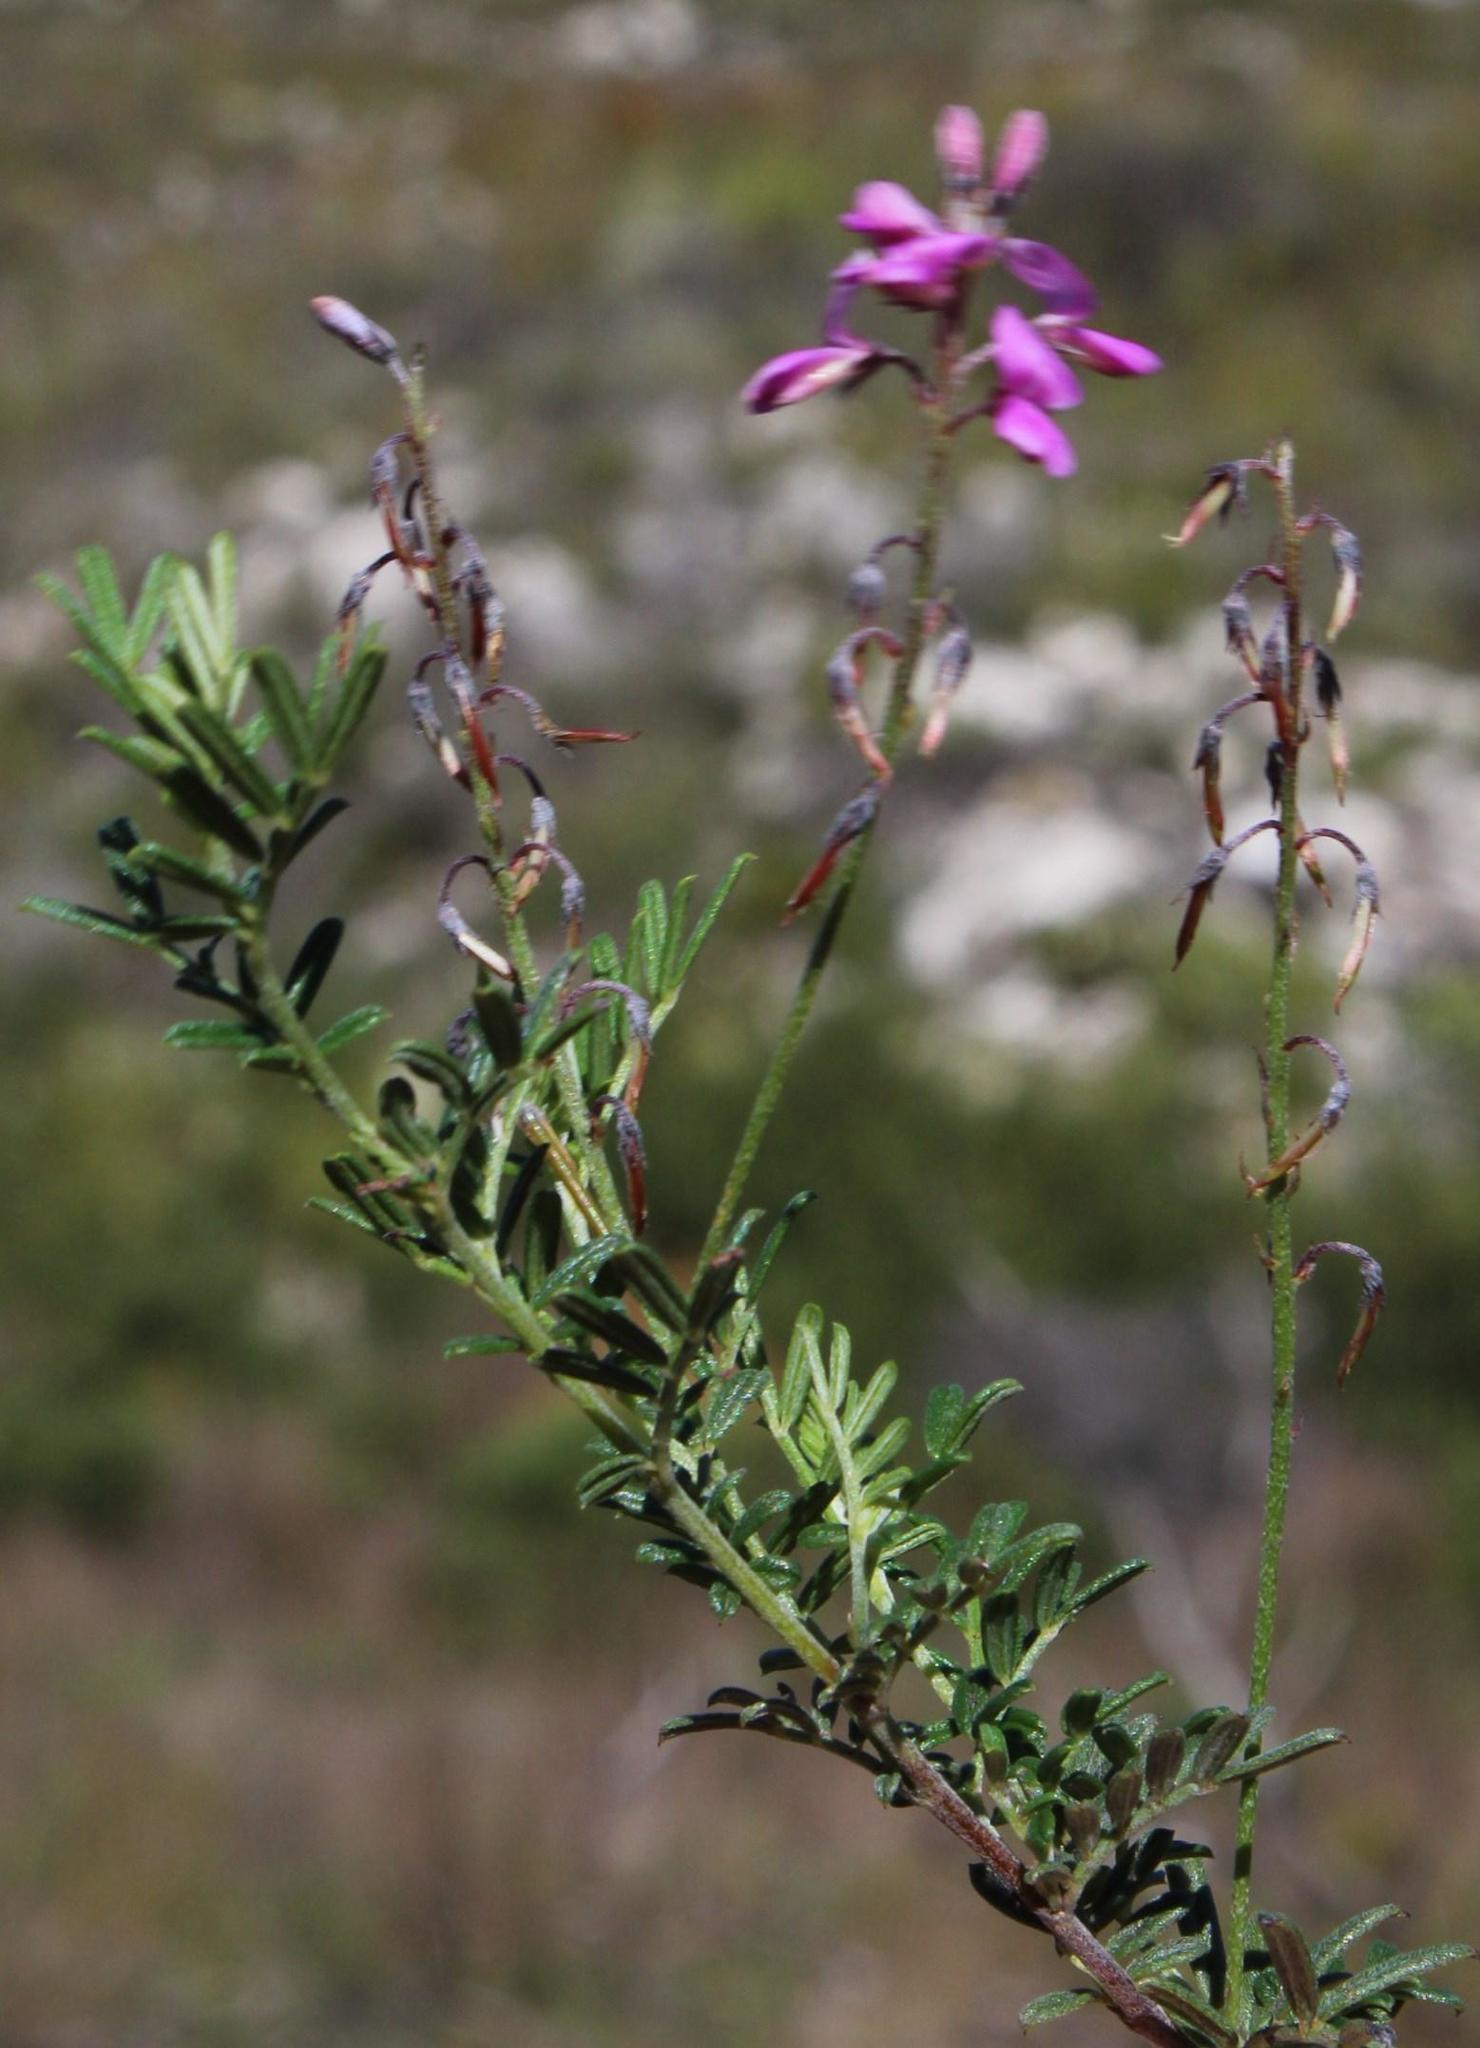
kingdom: Plantae
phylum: Tracheophyta
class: Magnoliopsida
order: Fabales
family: Fabaceae
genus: Indigofera
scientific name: Indigofera angustifolia
